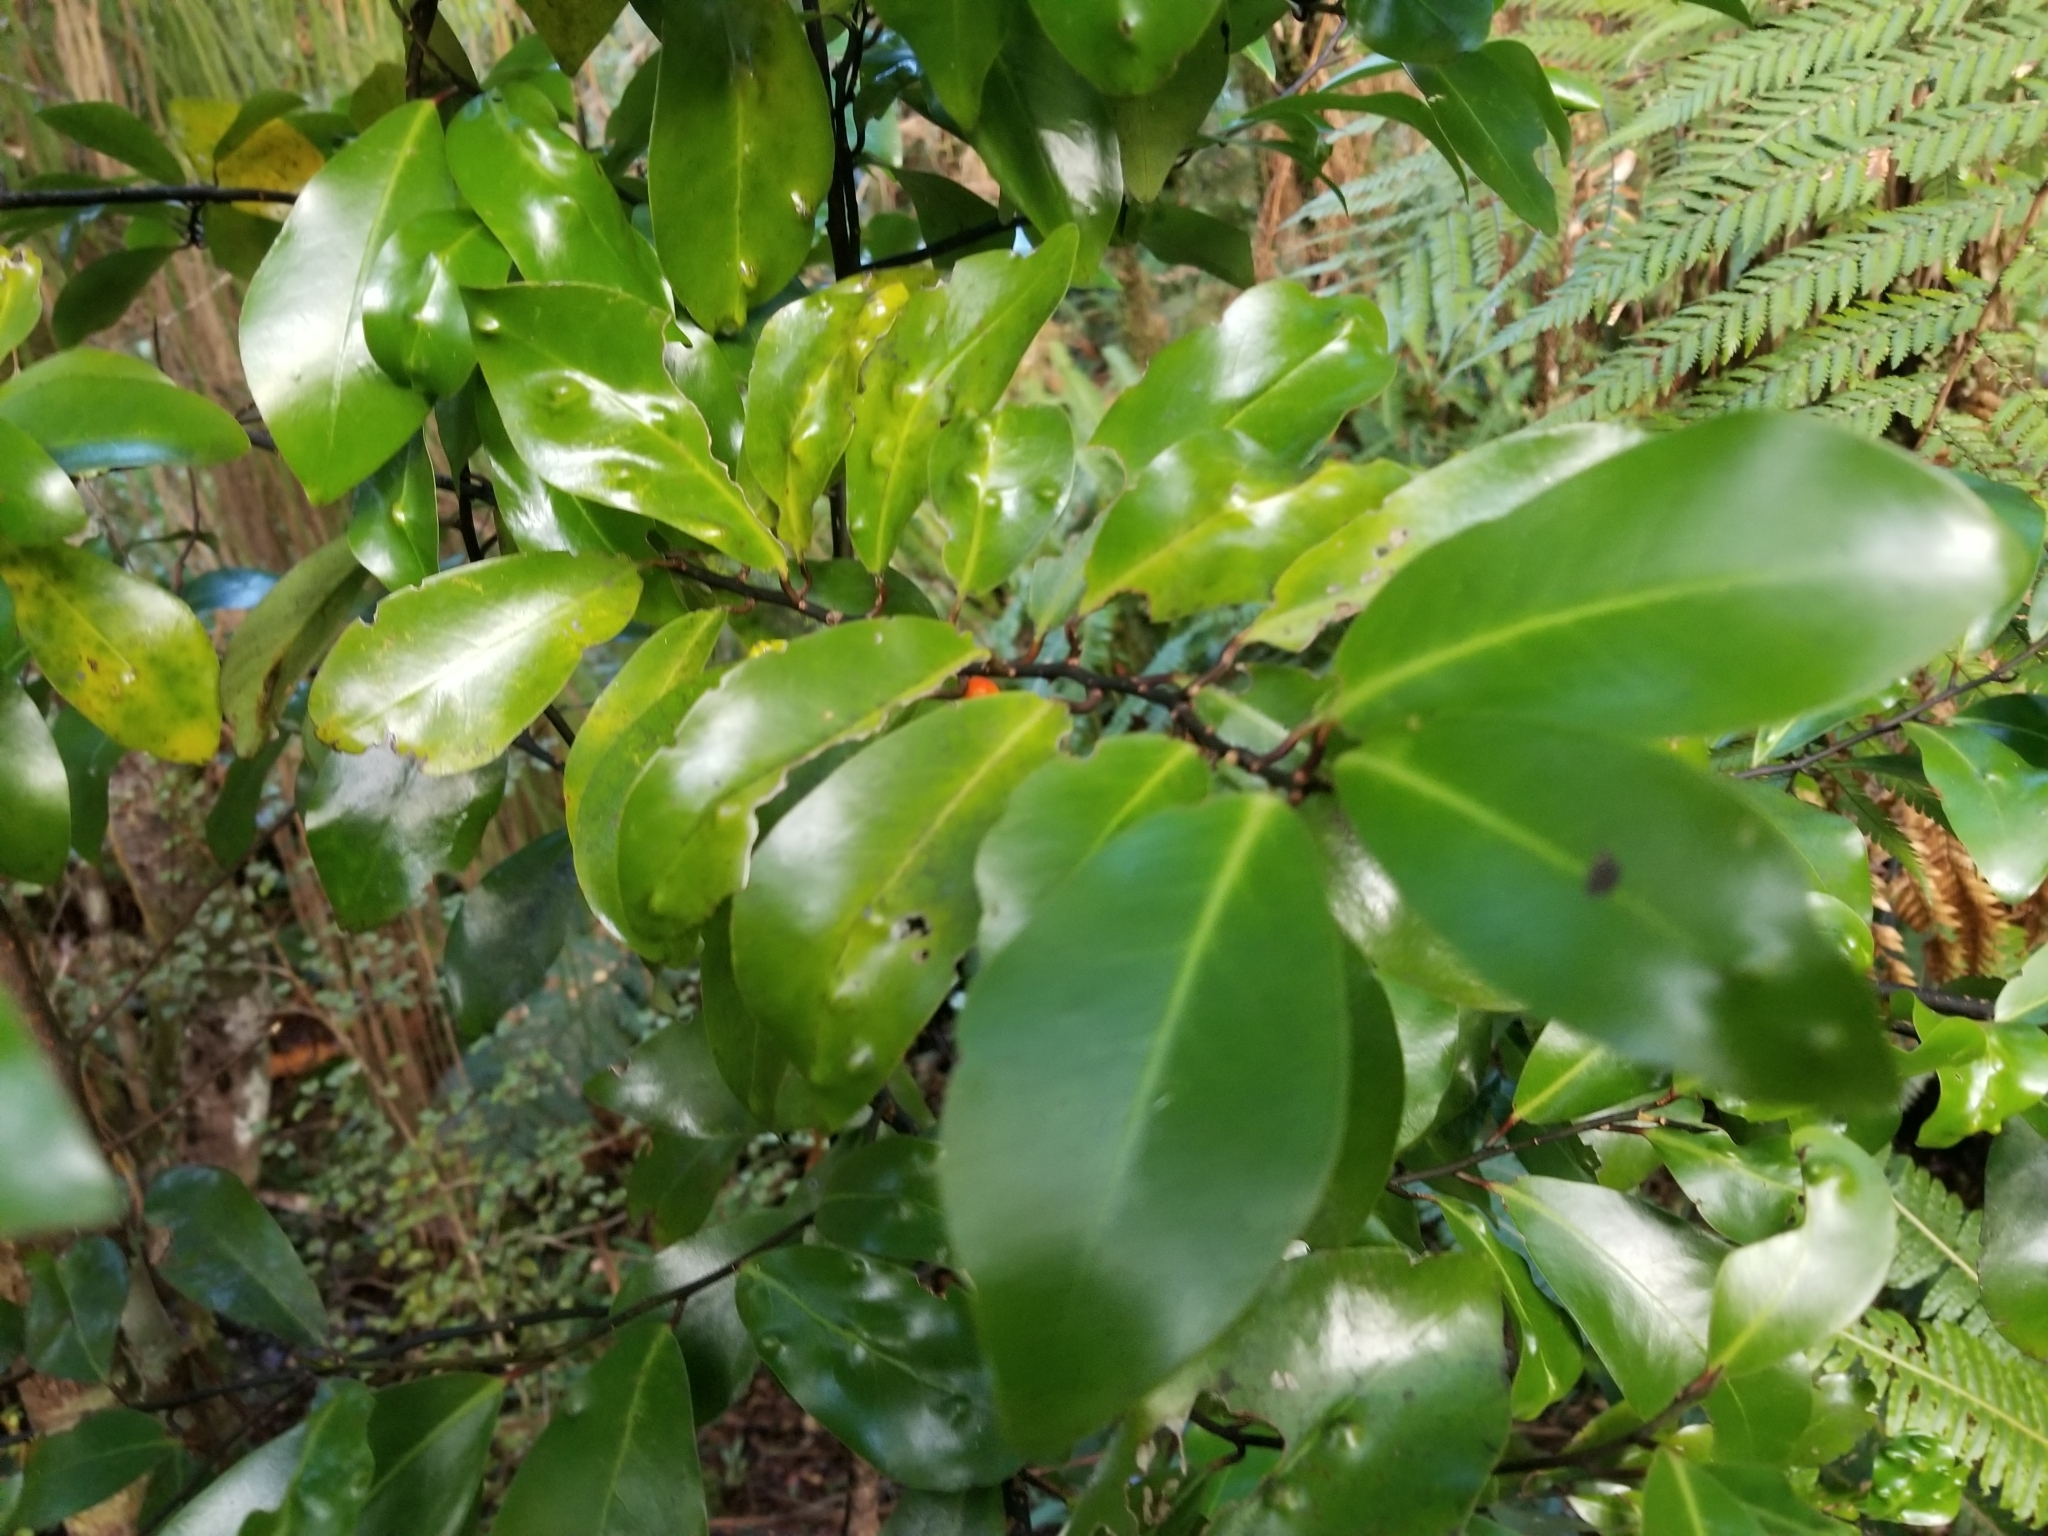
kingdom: Plantae
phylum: Tracheophyta
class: Magnoliopsida
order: Canellales
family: Winteraceae
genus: Pseudowintera
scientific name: Pseudowintera axillaris
